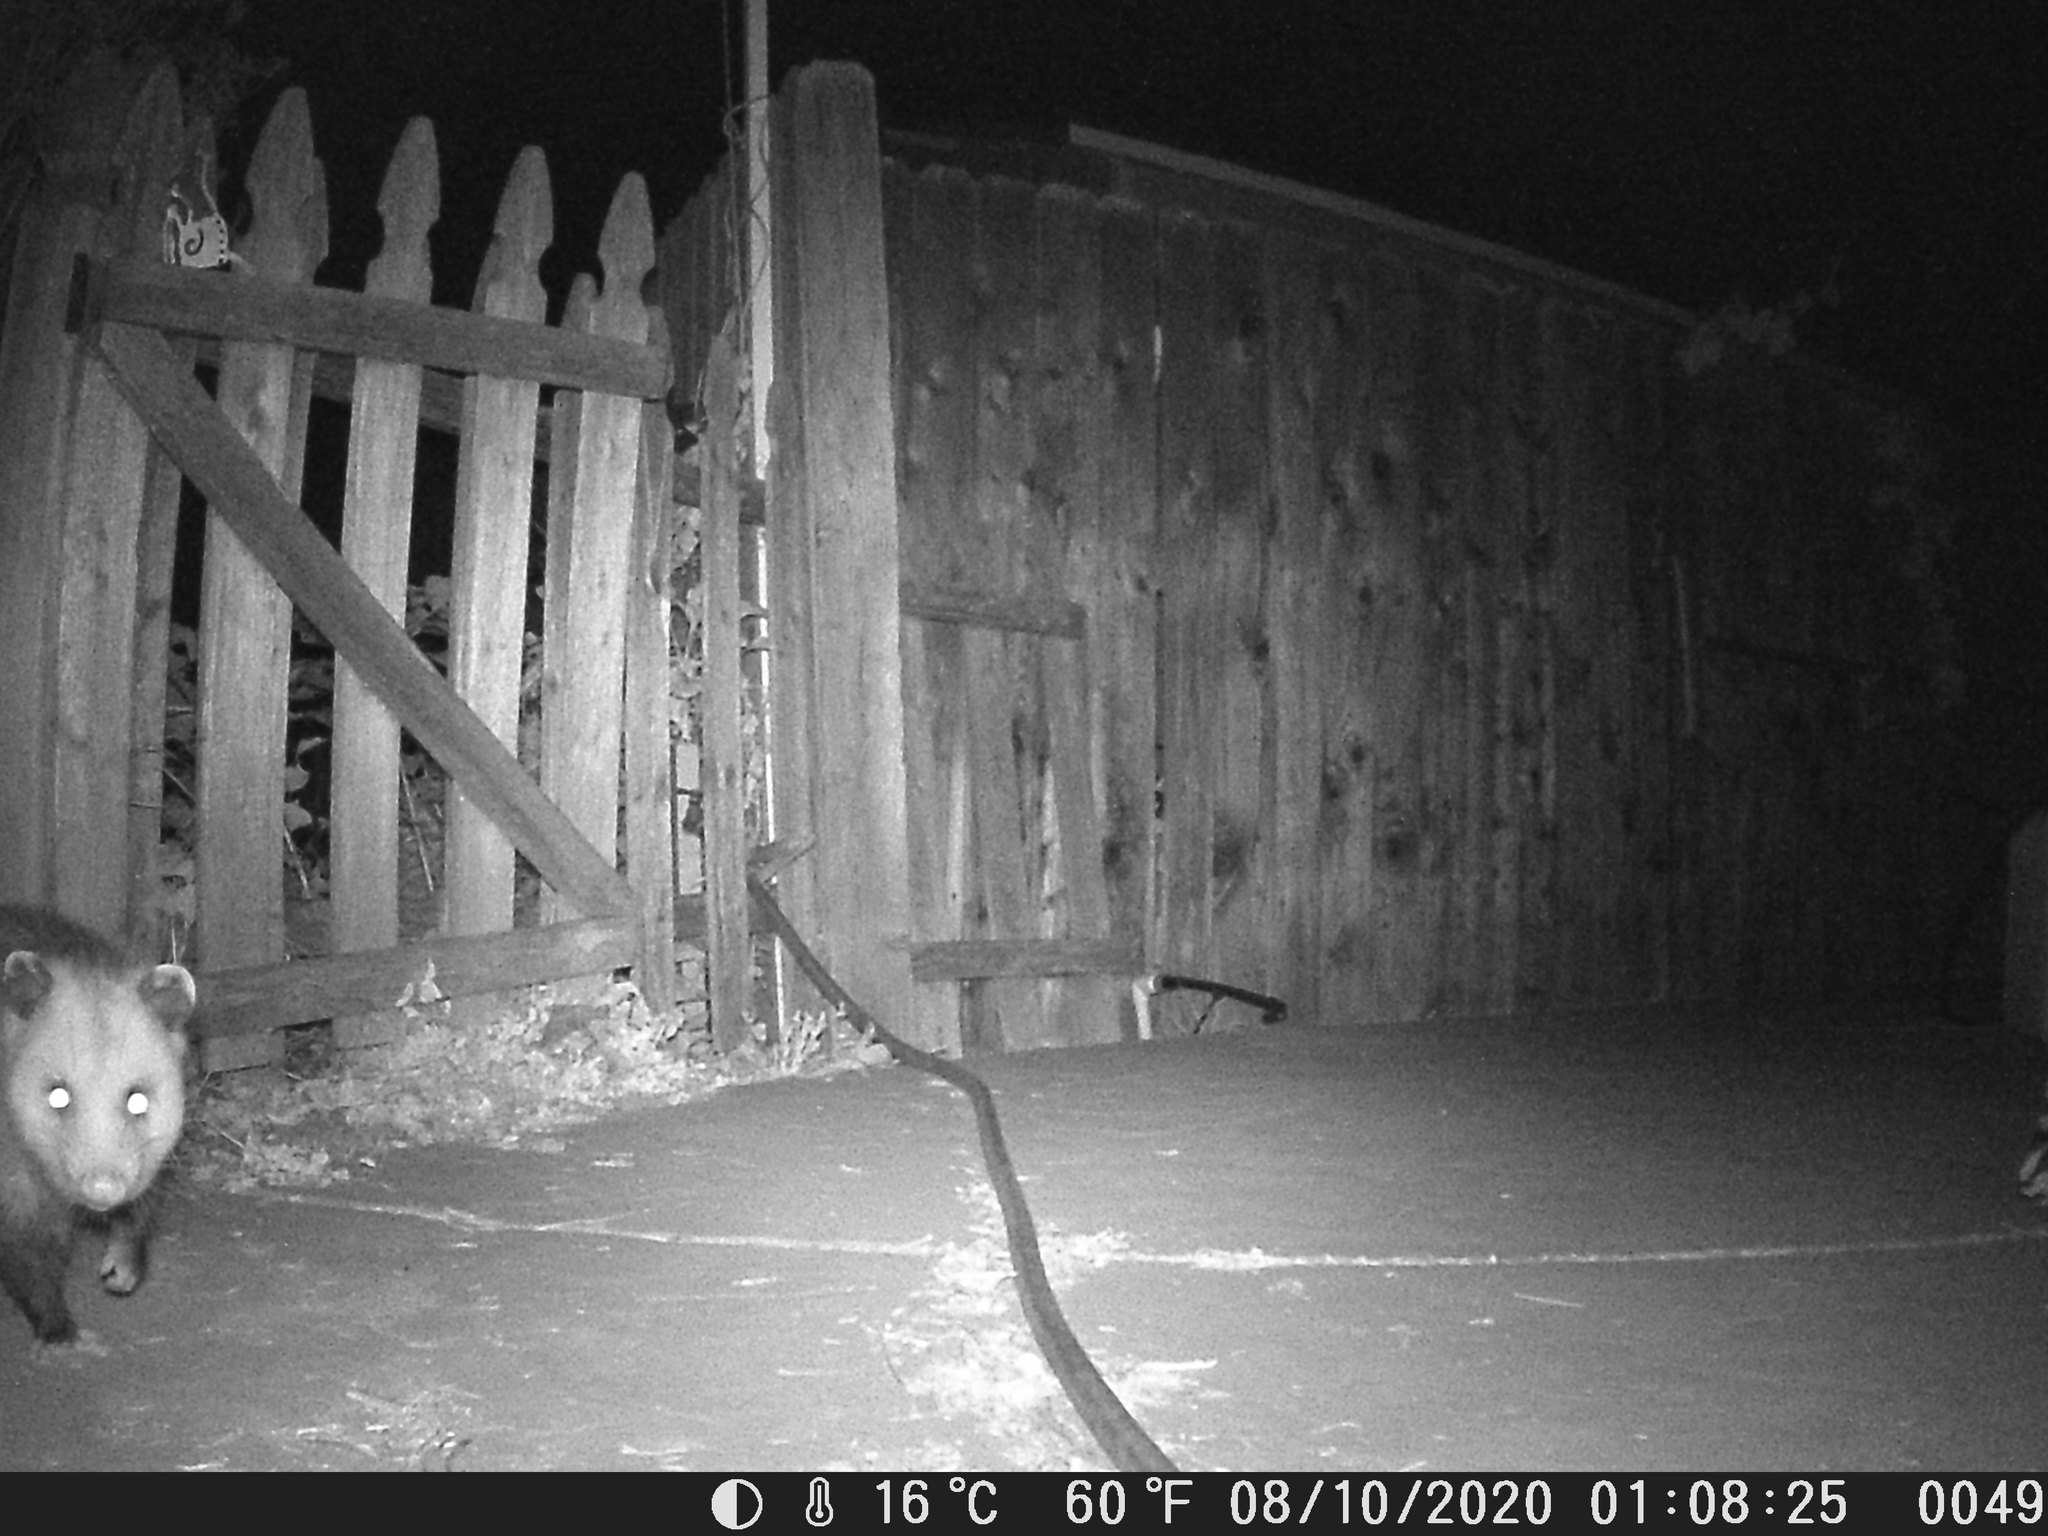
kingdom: Animalia
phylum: Chordata
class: Mammalia
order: Didelphimorphia
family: Didelphidae
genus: Didelphis
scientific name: Didelphis virginiana
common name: Virginia opossum
